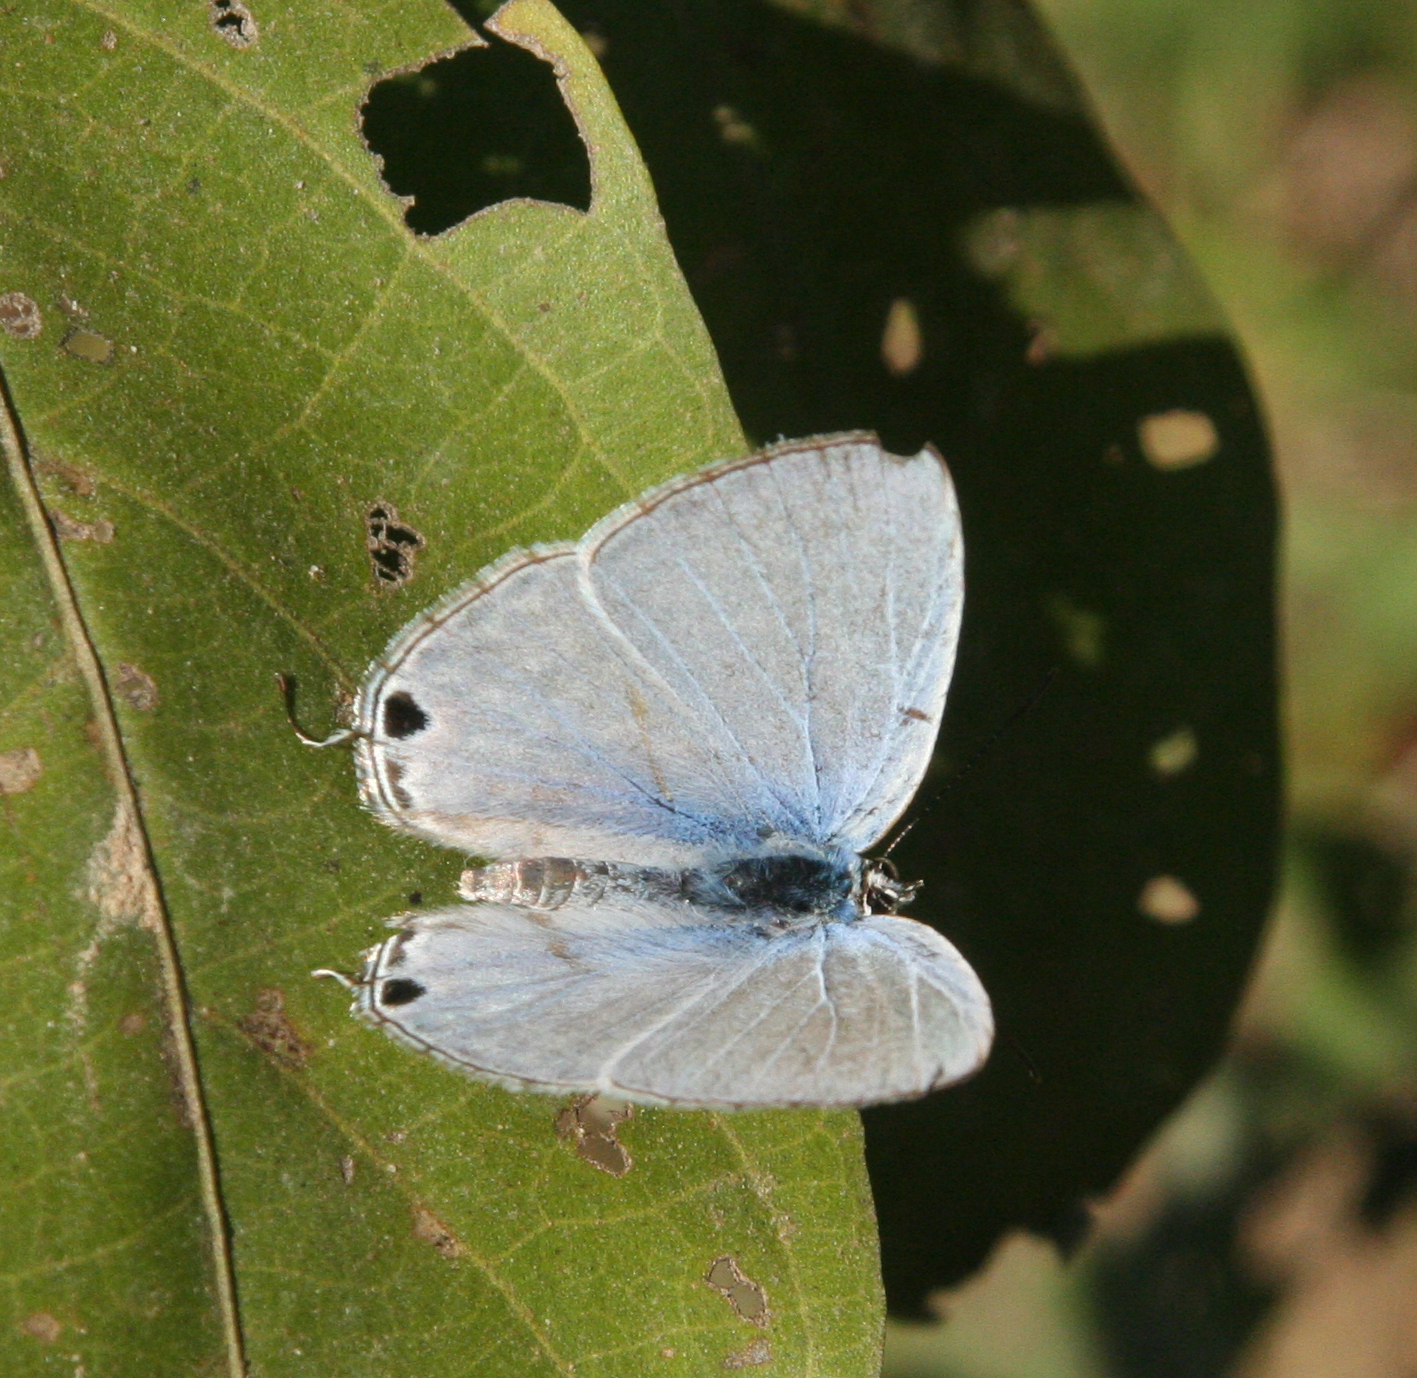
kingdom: Animalia
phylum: Arthropoda
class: Insecta
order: Lepidoptera
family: Lycaenidae
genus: Catochrysops
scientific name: Catochrysops panormus
